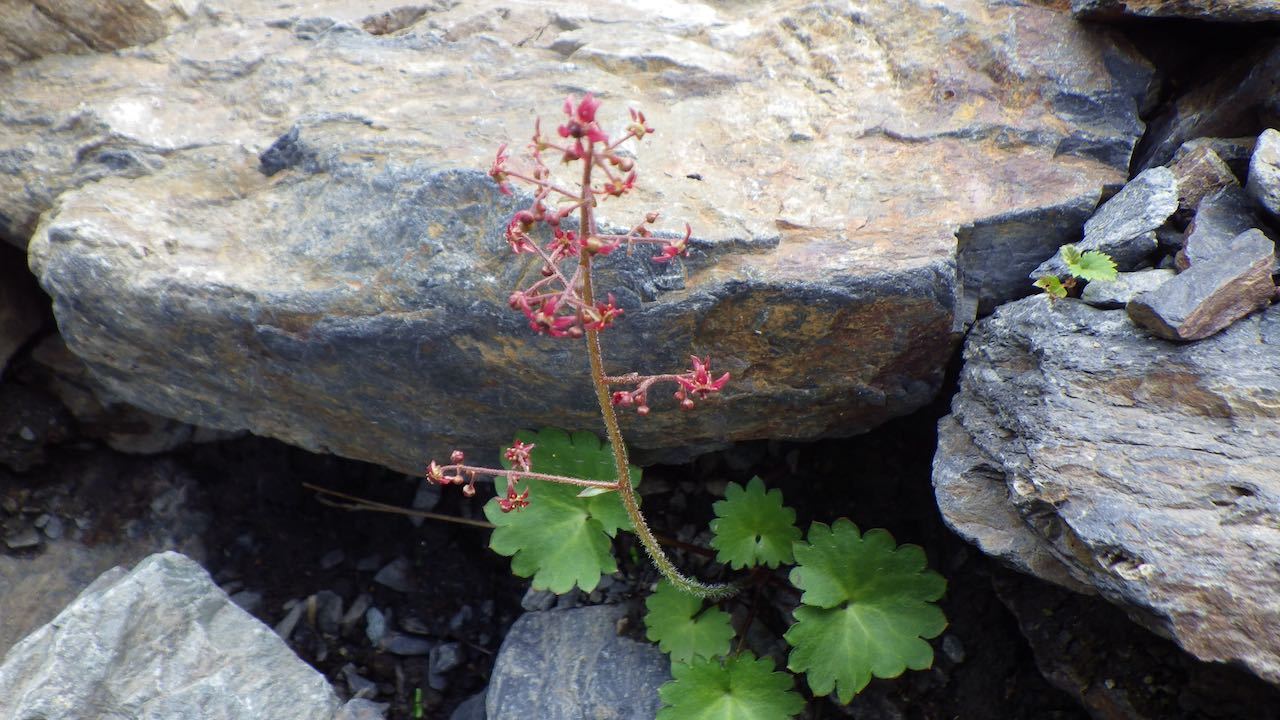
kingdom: Plantae
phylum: Tracheophyta
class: Magnoliopsida
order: Saxifragales
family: Saxifragaceae
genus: Micranthes
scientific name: Micranthes fusca
